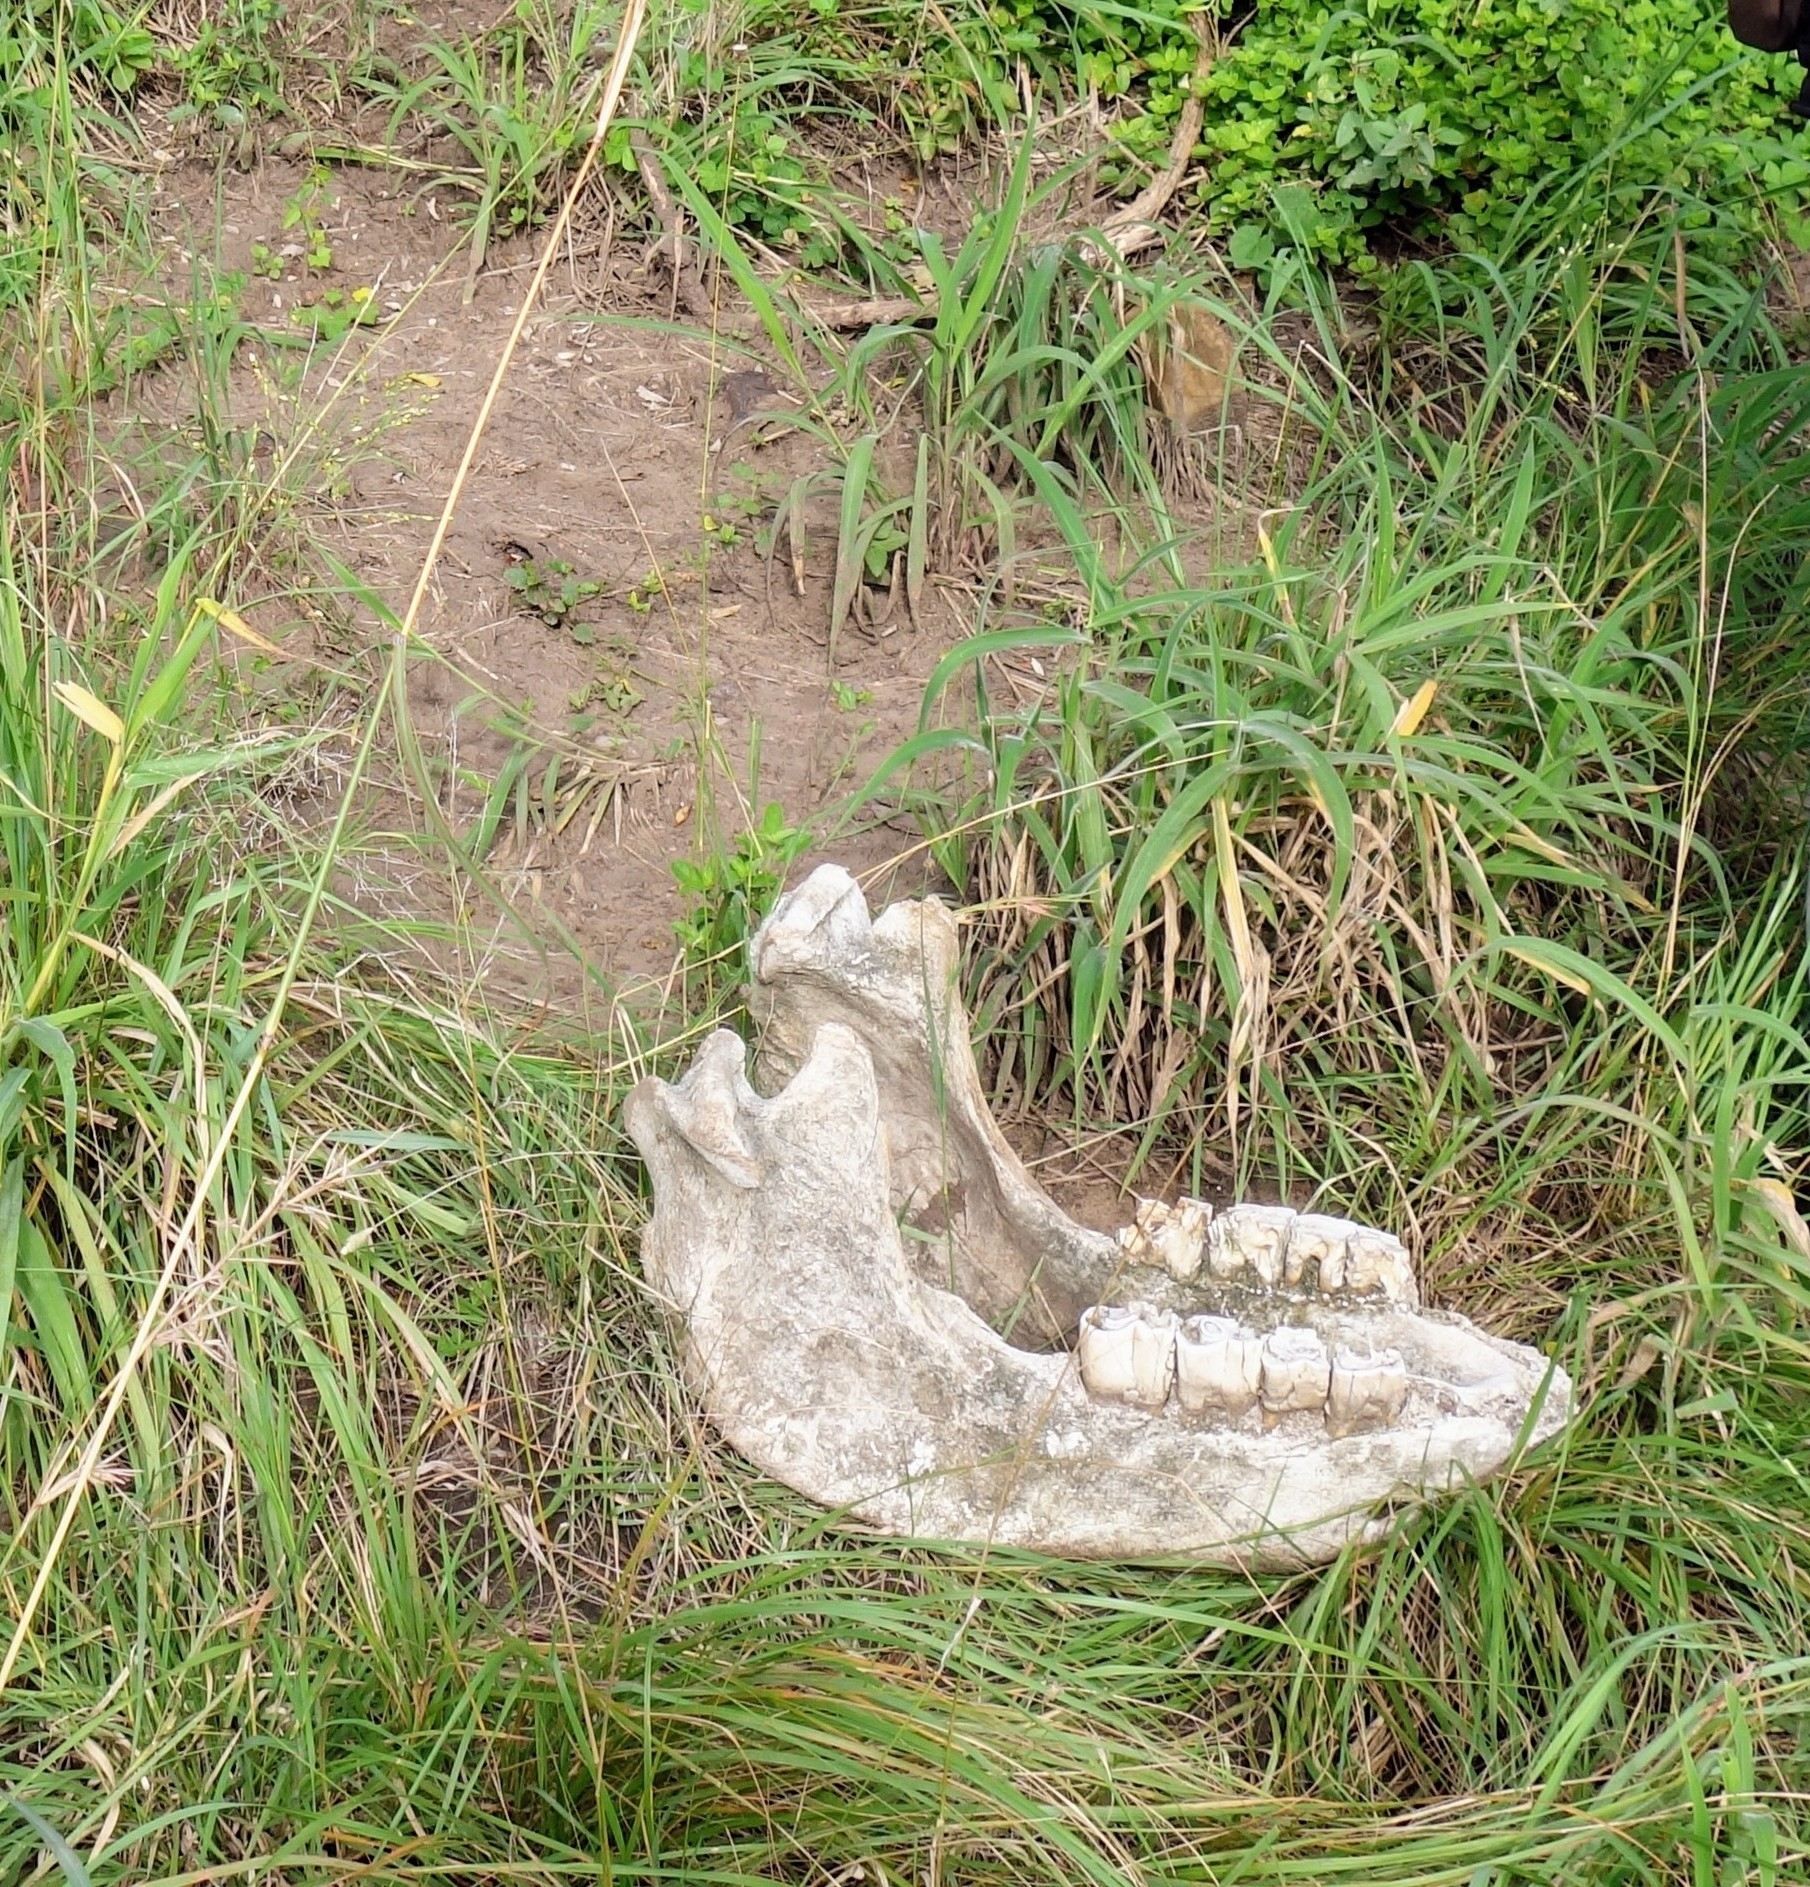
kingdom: Animalia
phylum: Chordata
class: Mammalia
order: Perissodactyla
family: Rhinocerotidae
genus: Ceratotherium
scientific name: Ceratotherium simum
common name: White rhinoceros
